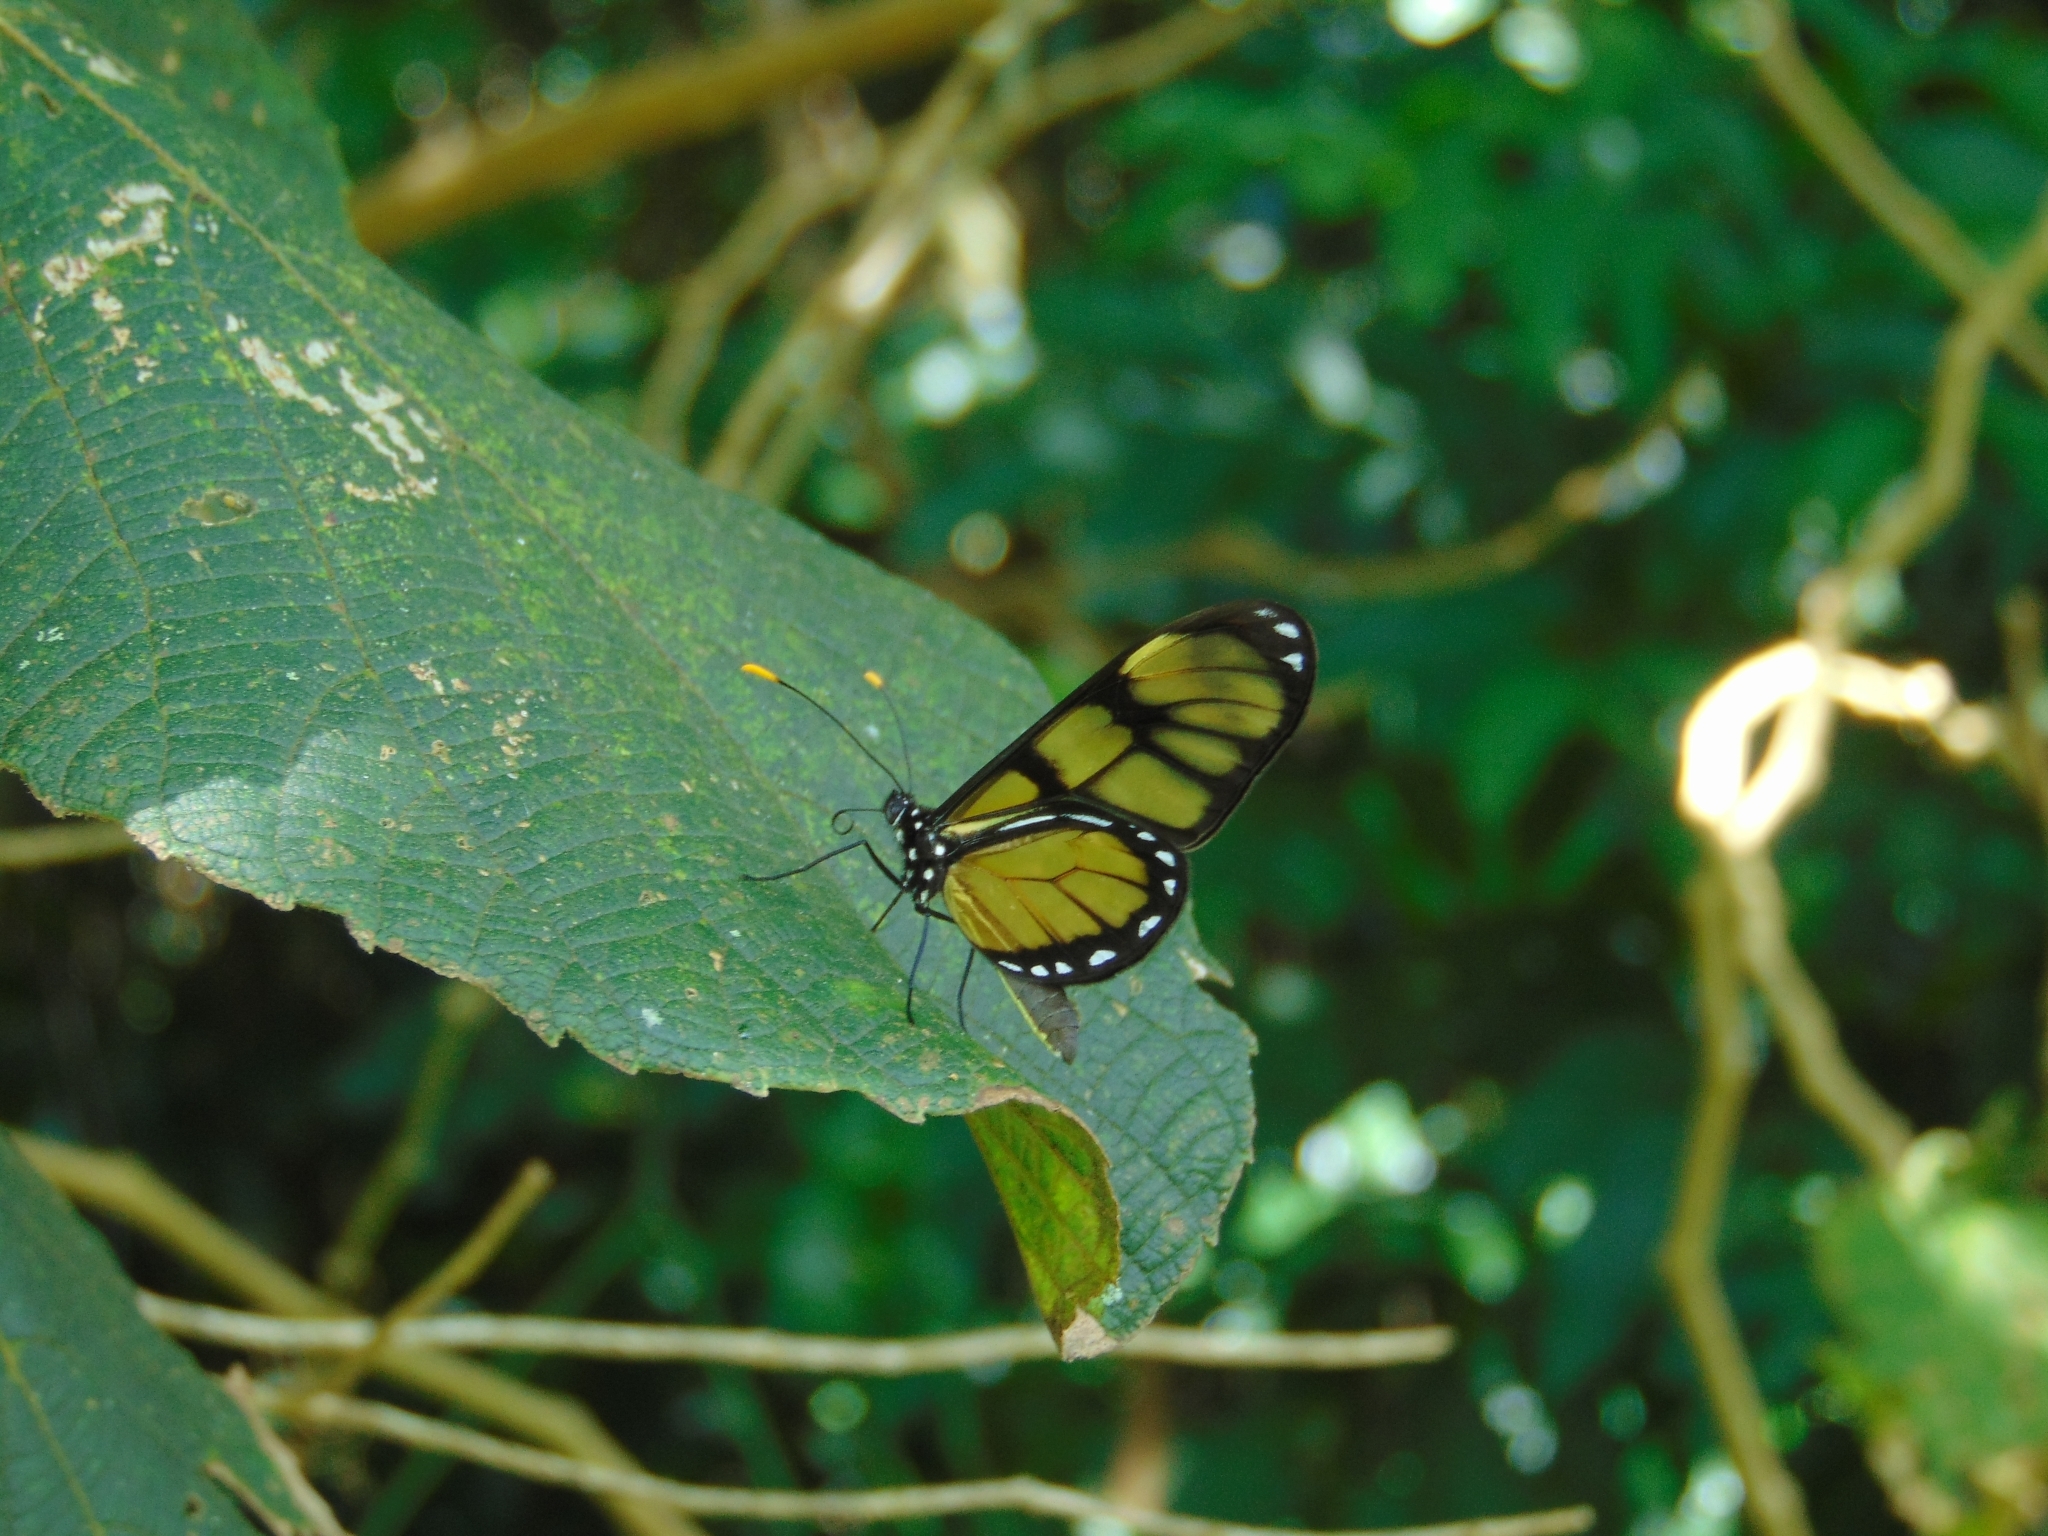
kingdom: Animalia
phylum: Arthropoda
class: Insecta
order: Lepidoptera
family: Nymphalidae
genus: Dircenna
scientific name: Dircenna dero
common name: Dero clearwing
